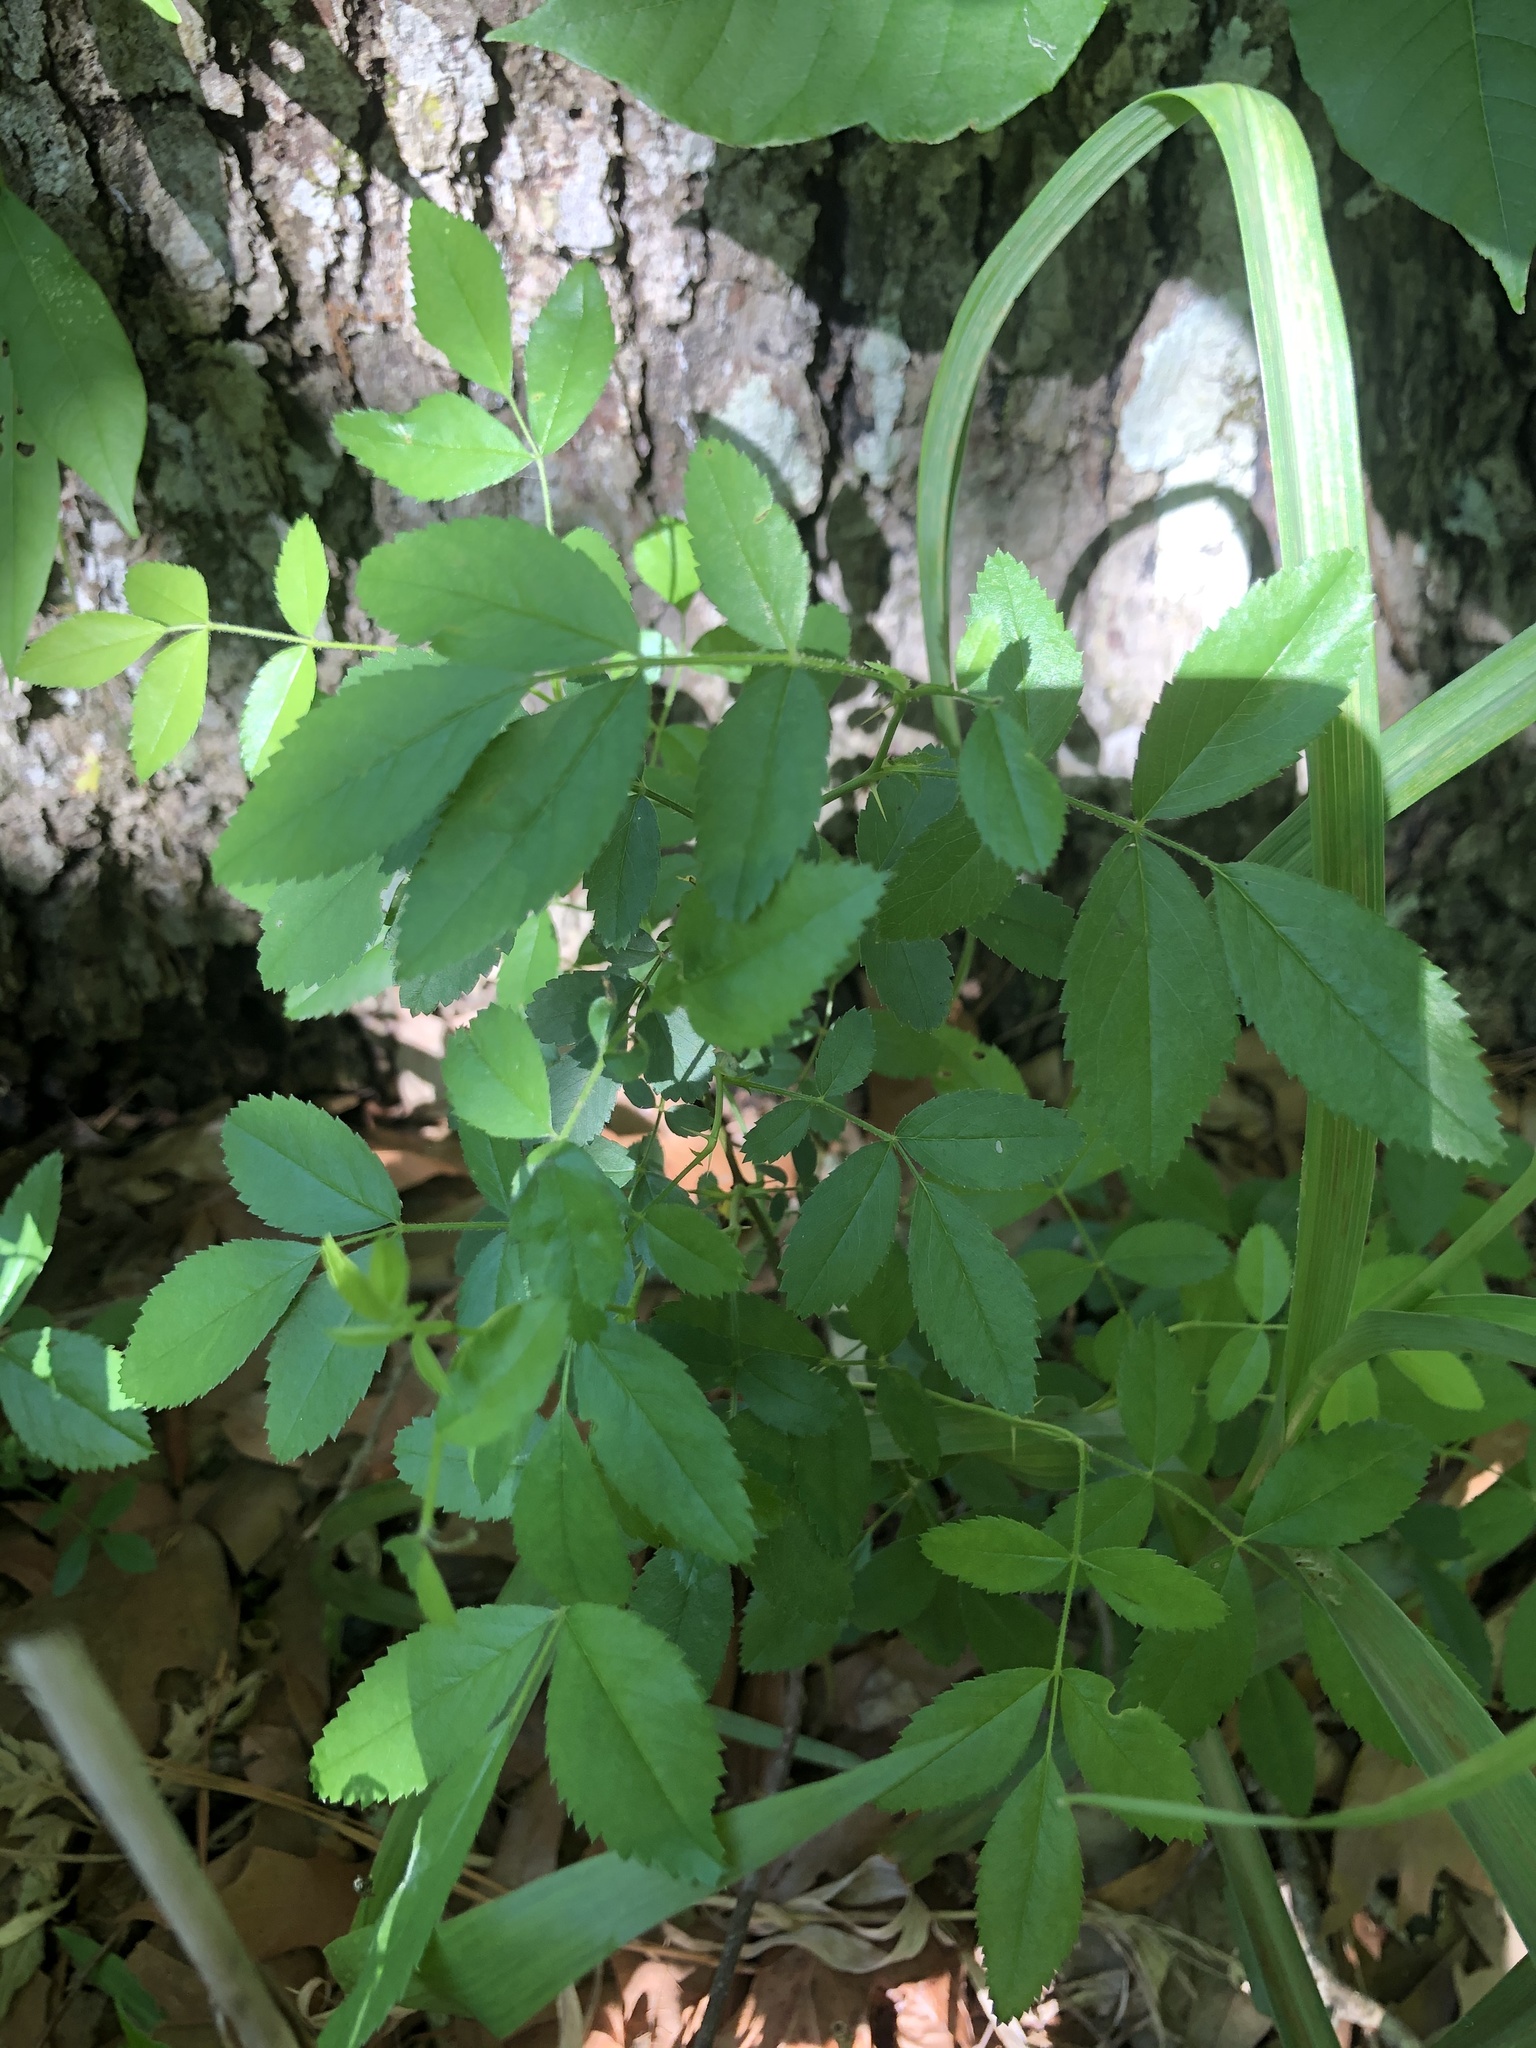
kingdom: Plantae
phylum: Tracheophyta
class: Magnoliopsida
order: Rosales
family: Rosaceae
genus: Rosa
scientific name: Rosa carolina
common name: Pasture rose
